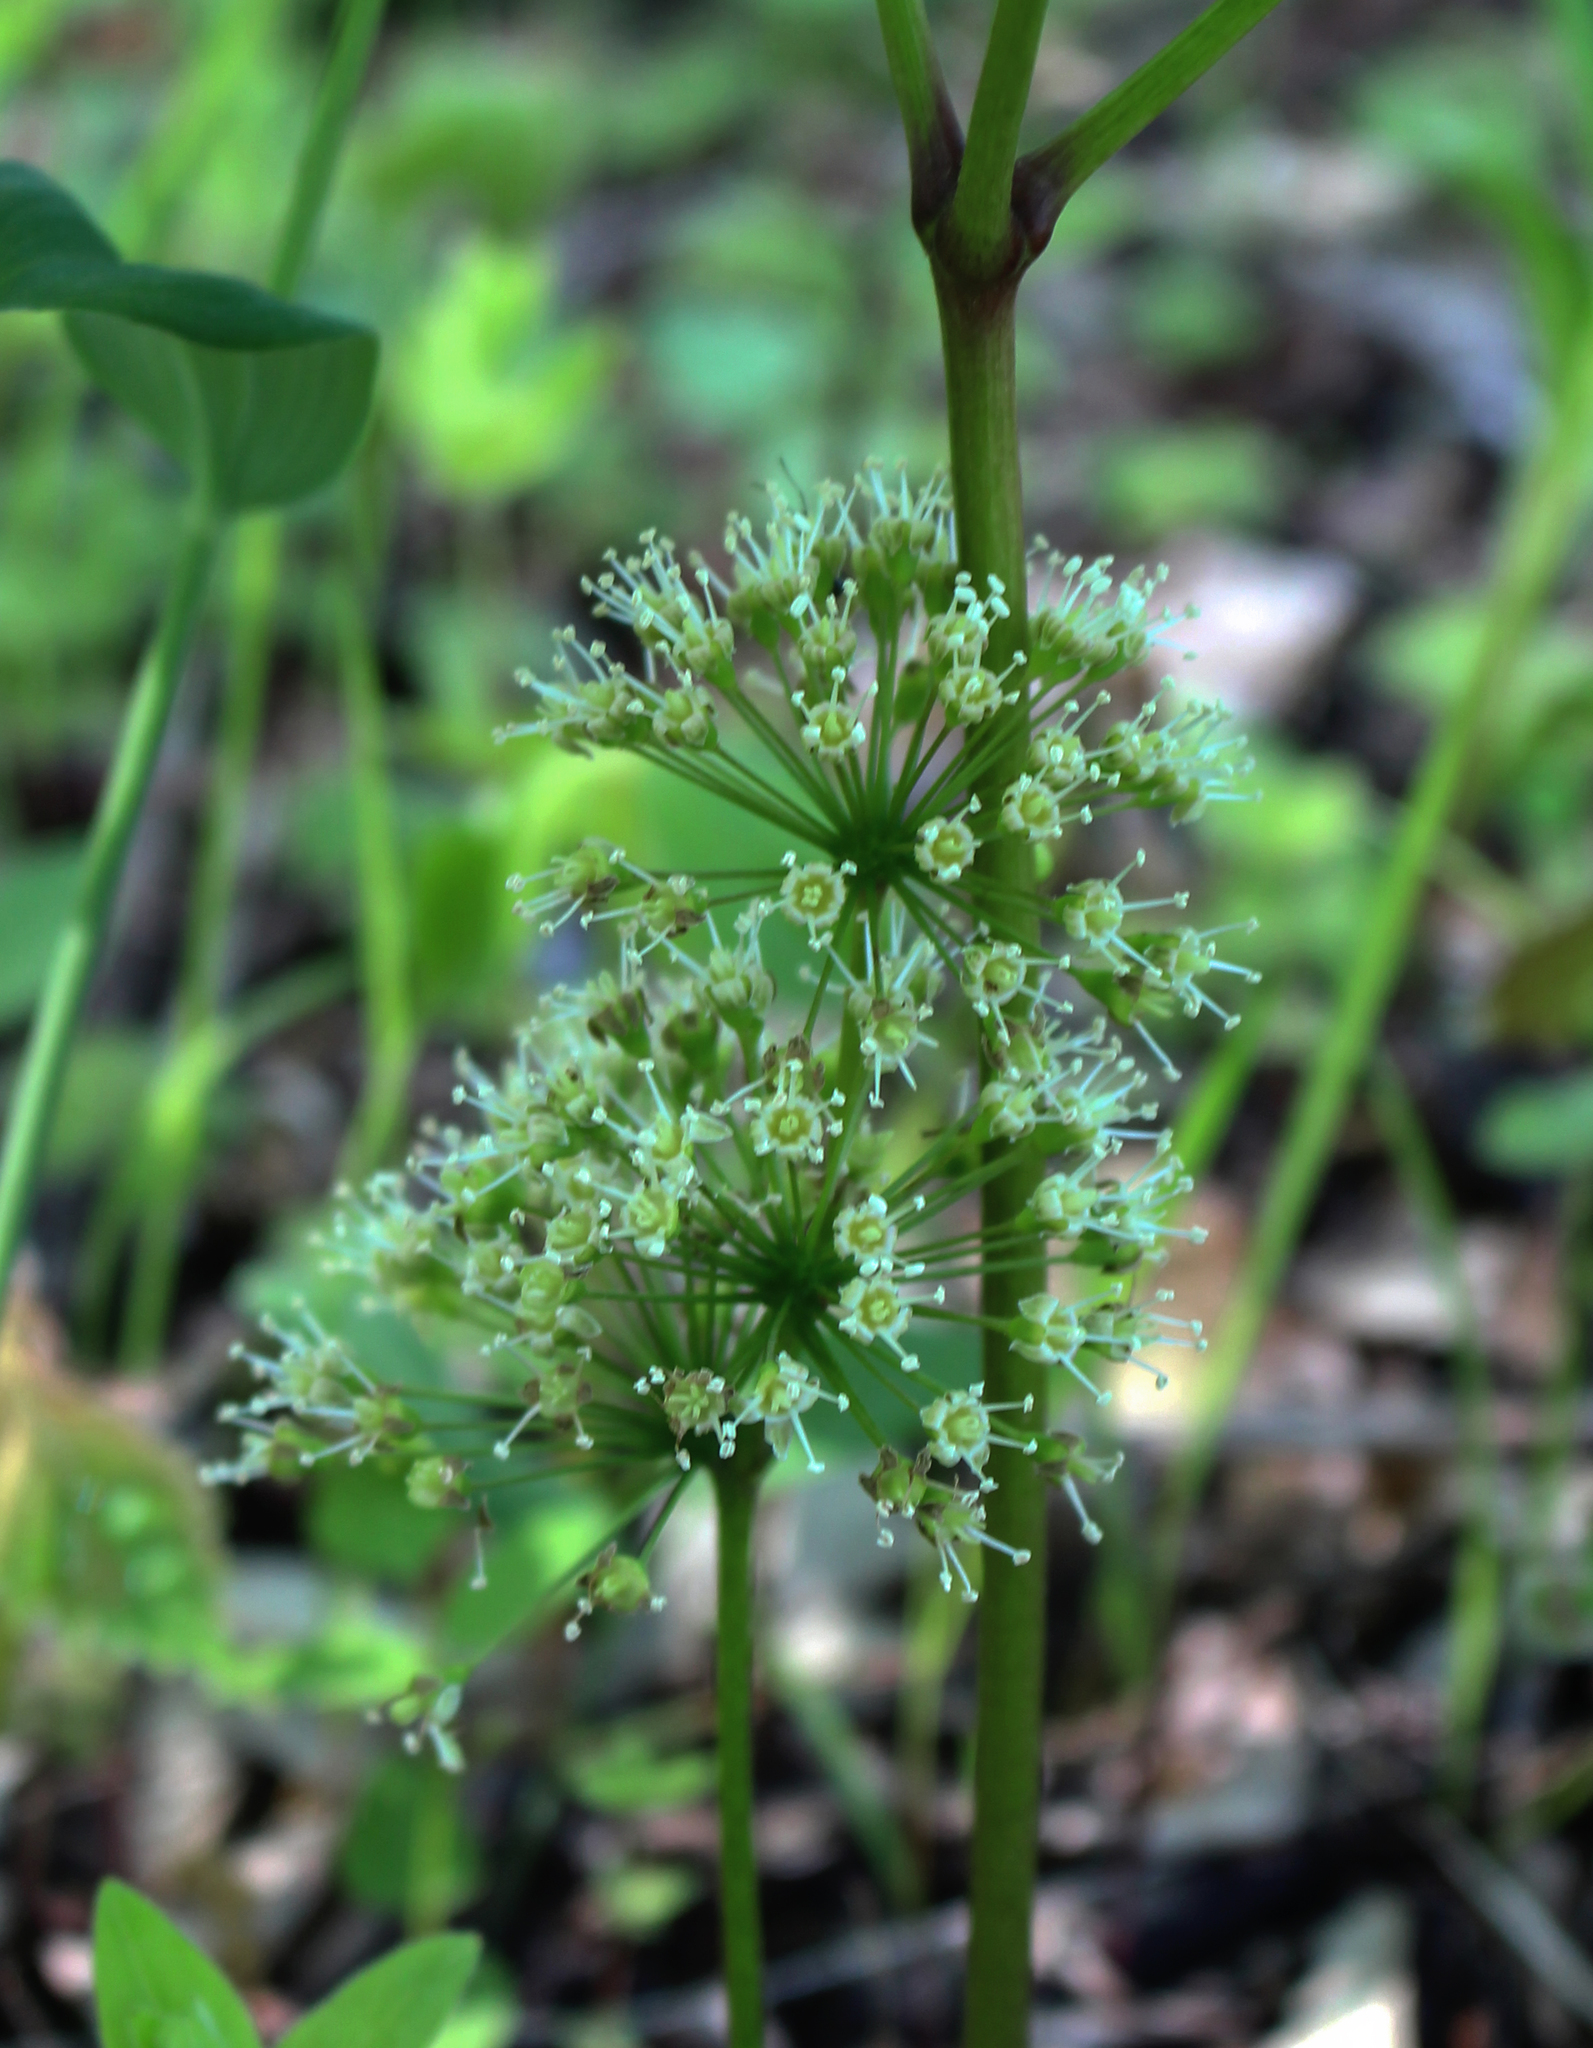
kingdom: Plantae
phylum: Tracheophyta
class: Magnoliopsida
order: Apiales
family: Araliaceae
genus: Aralia
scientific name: Aralia nudicaulis
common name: Wild sarsaparilla
